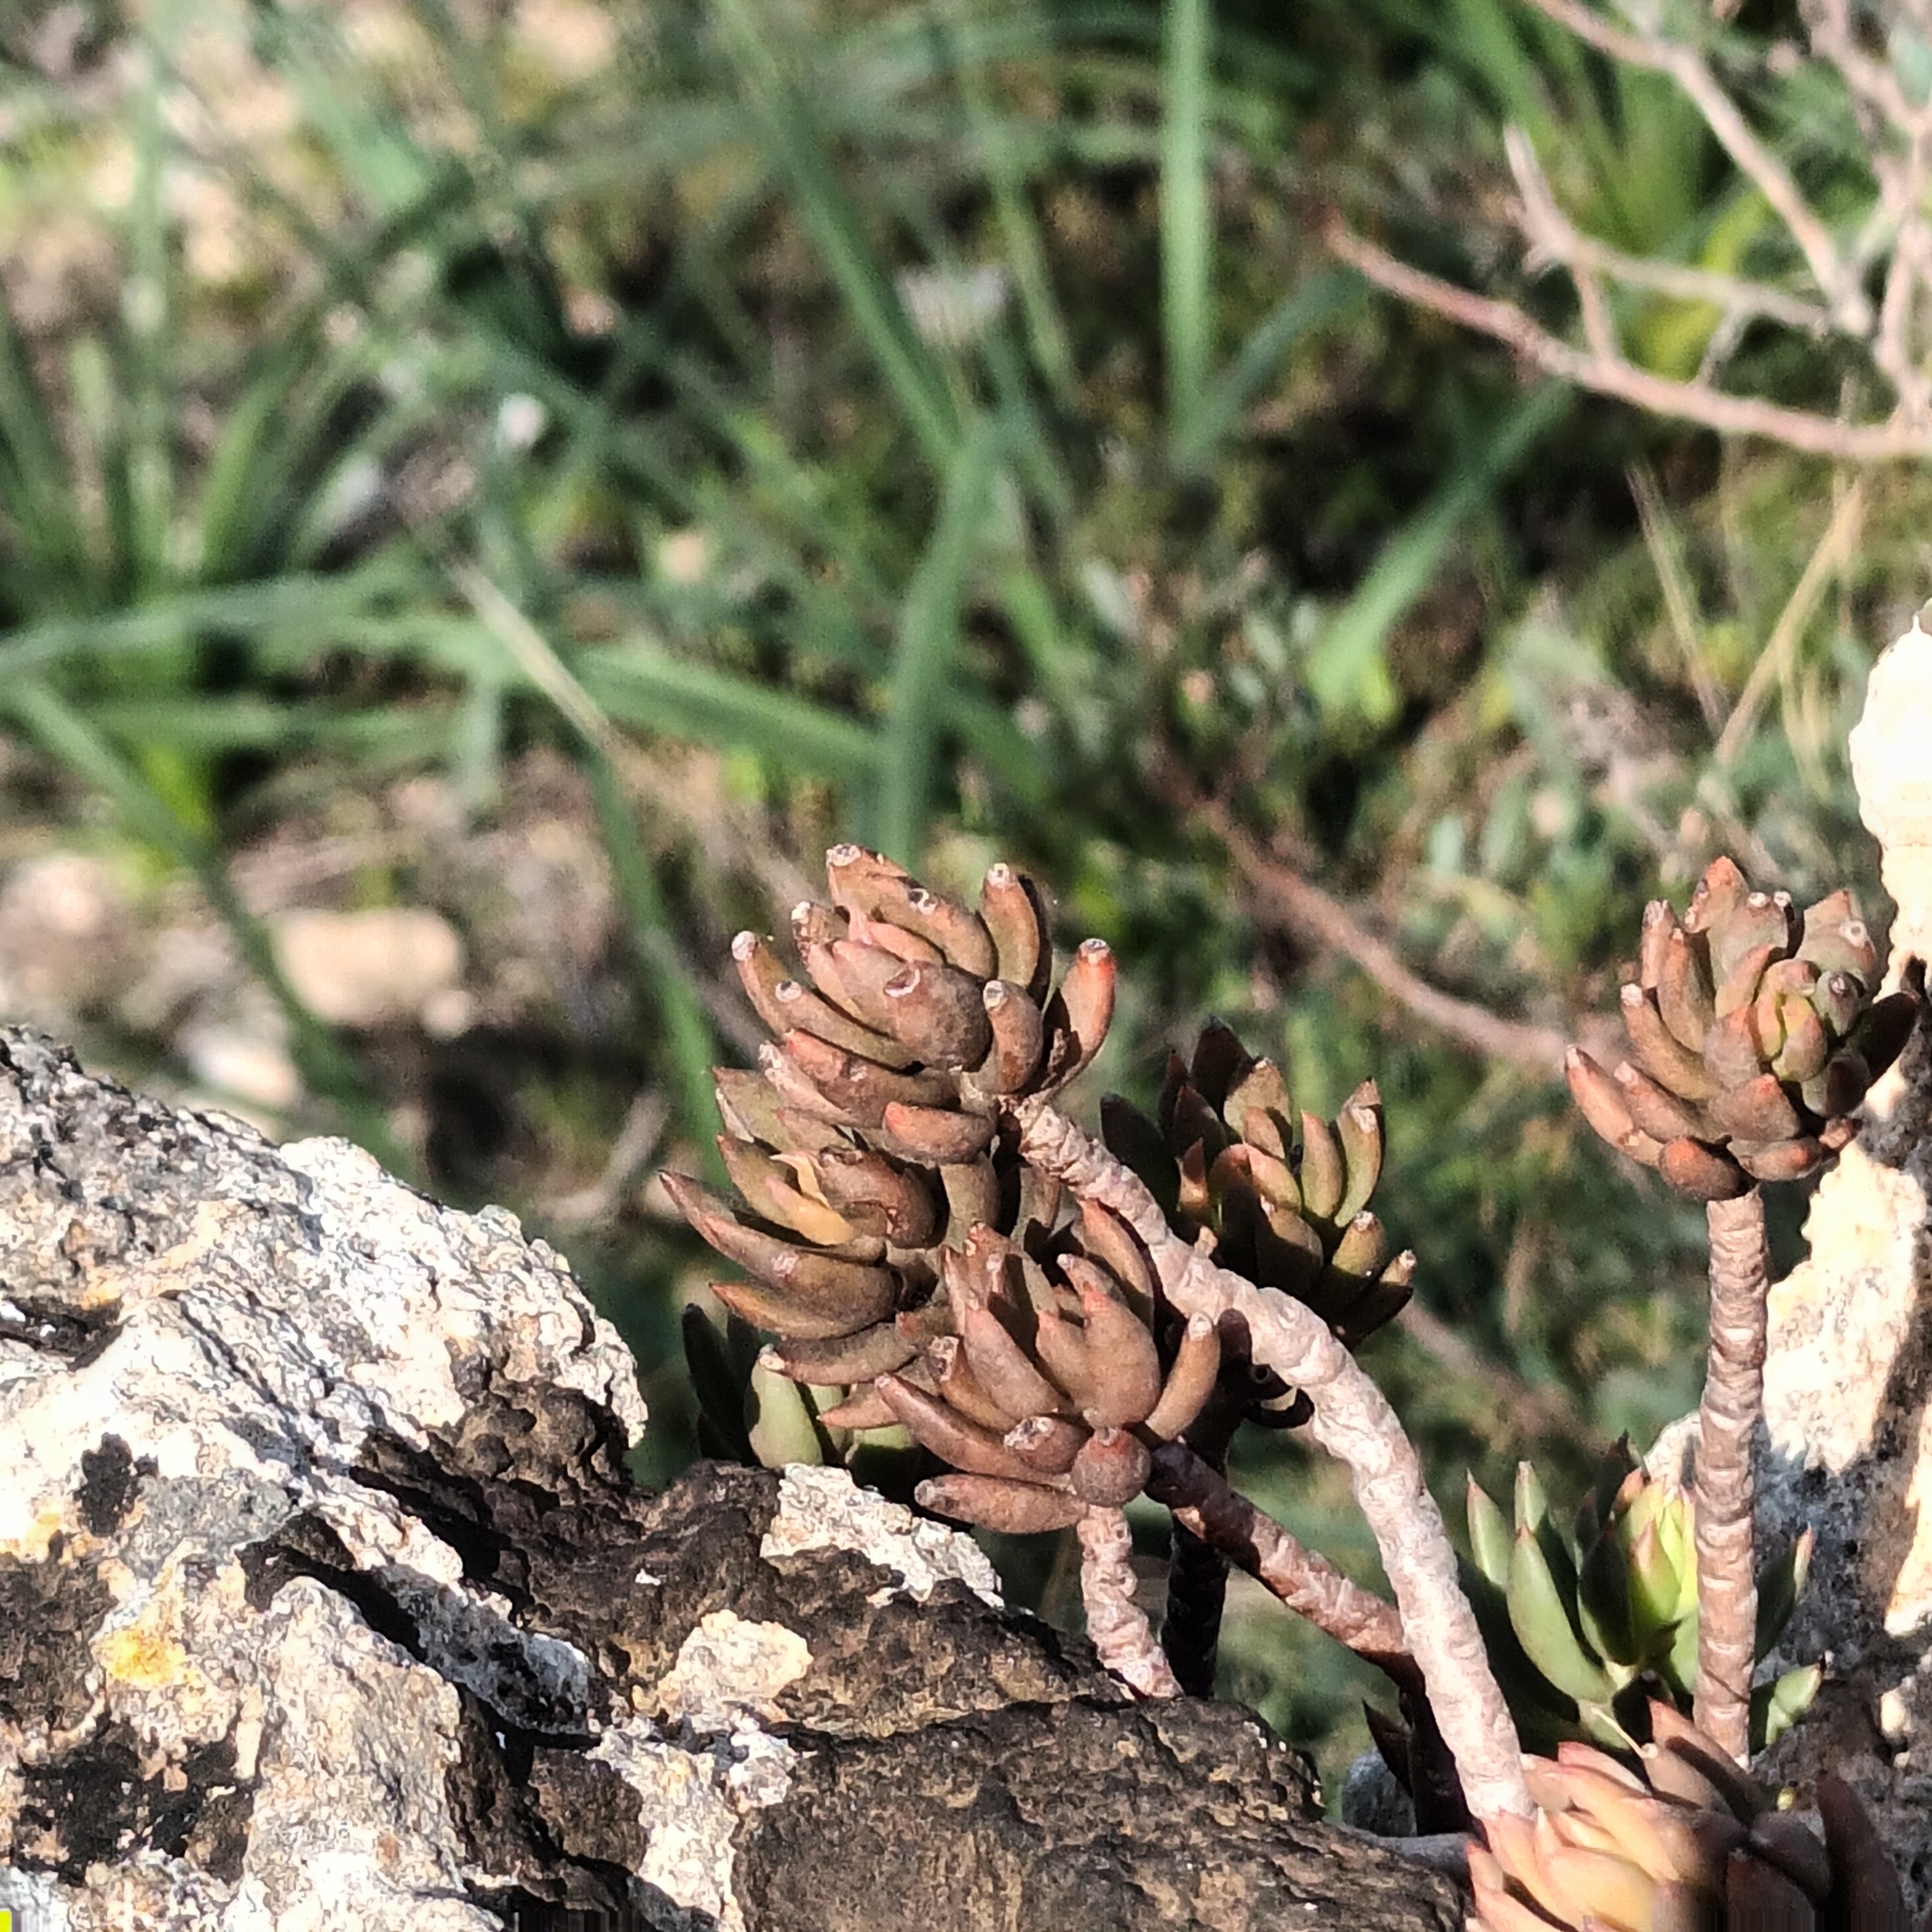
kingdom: Plantae
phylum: Tracheophyta
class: Magnoliopsida
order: Saxifragales
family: Crassulaceae
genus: Petrosedum
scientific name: Petrosedum sediforme
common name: Pale stonecrop
